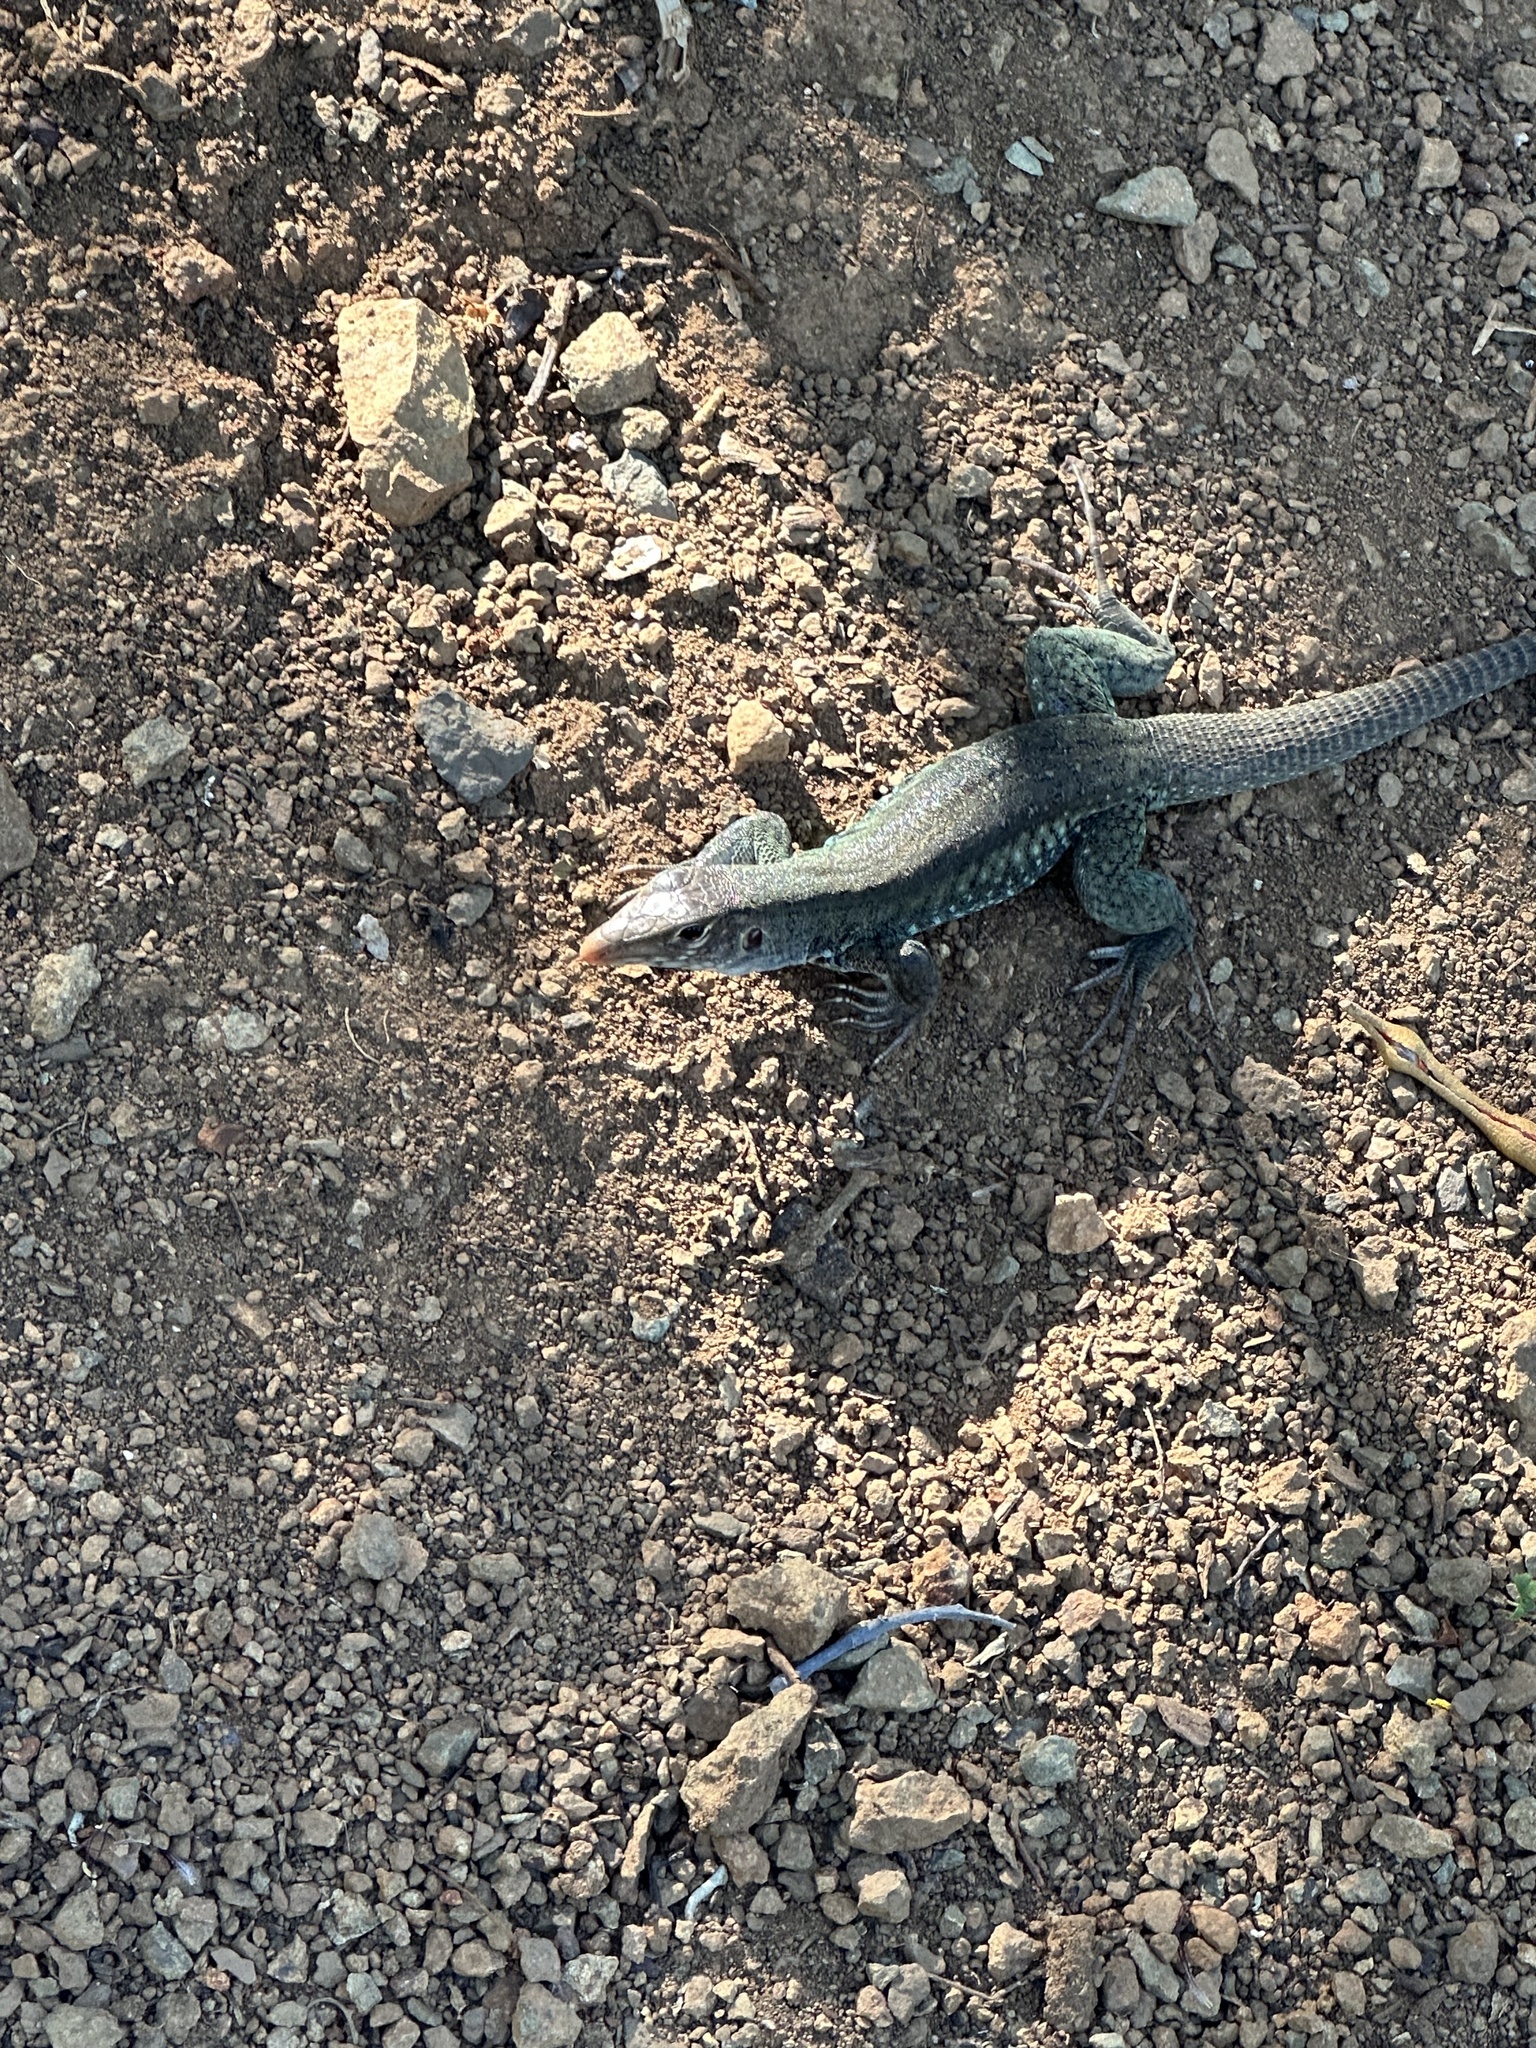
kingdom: Animalia
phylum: Chordata
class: Squamata
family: Teiidae
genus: Pholidoscelis
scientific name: Pholidoscelis plei
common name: Anguilla bank ameiva
